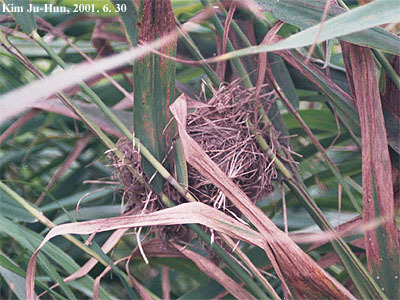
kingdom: Animalia
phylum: Chordata
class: Aves
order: Passeriformes
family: Acrocephalidae
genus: Acrocephalus
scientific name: Acrocephalus orientalis
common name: Oriental reed warbler
